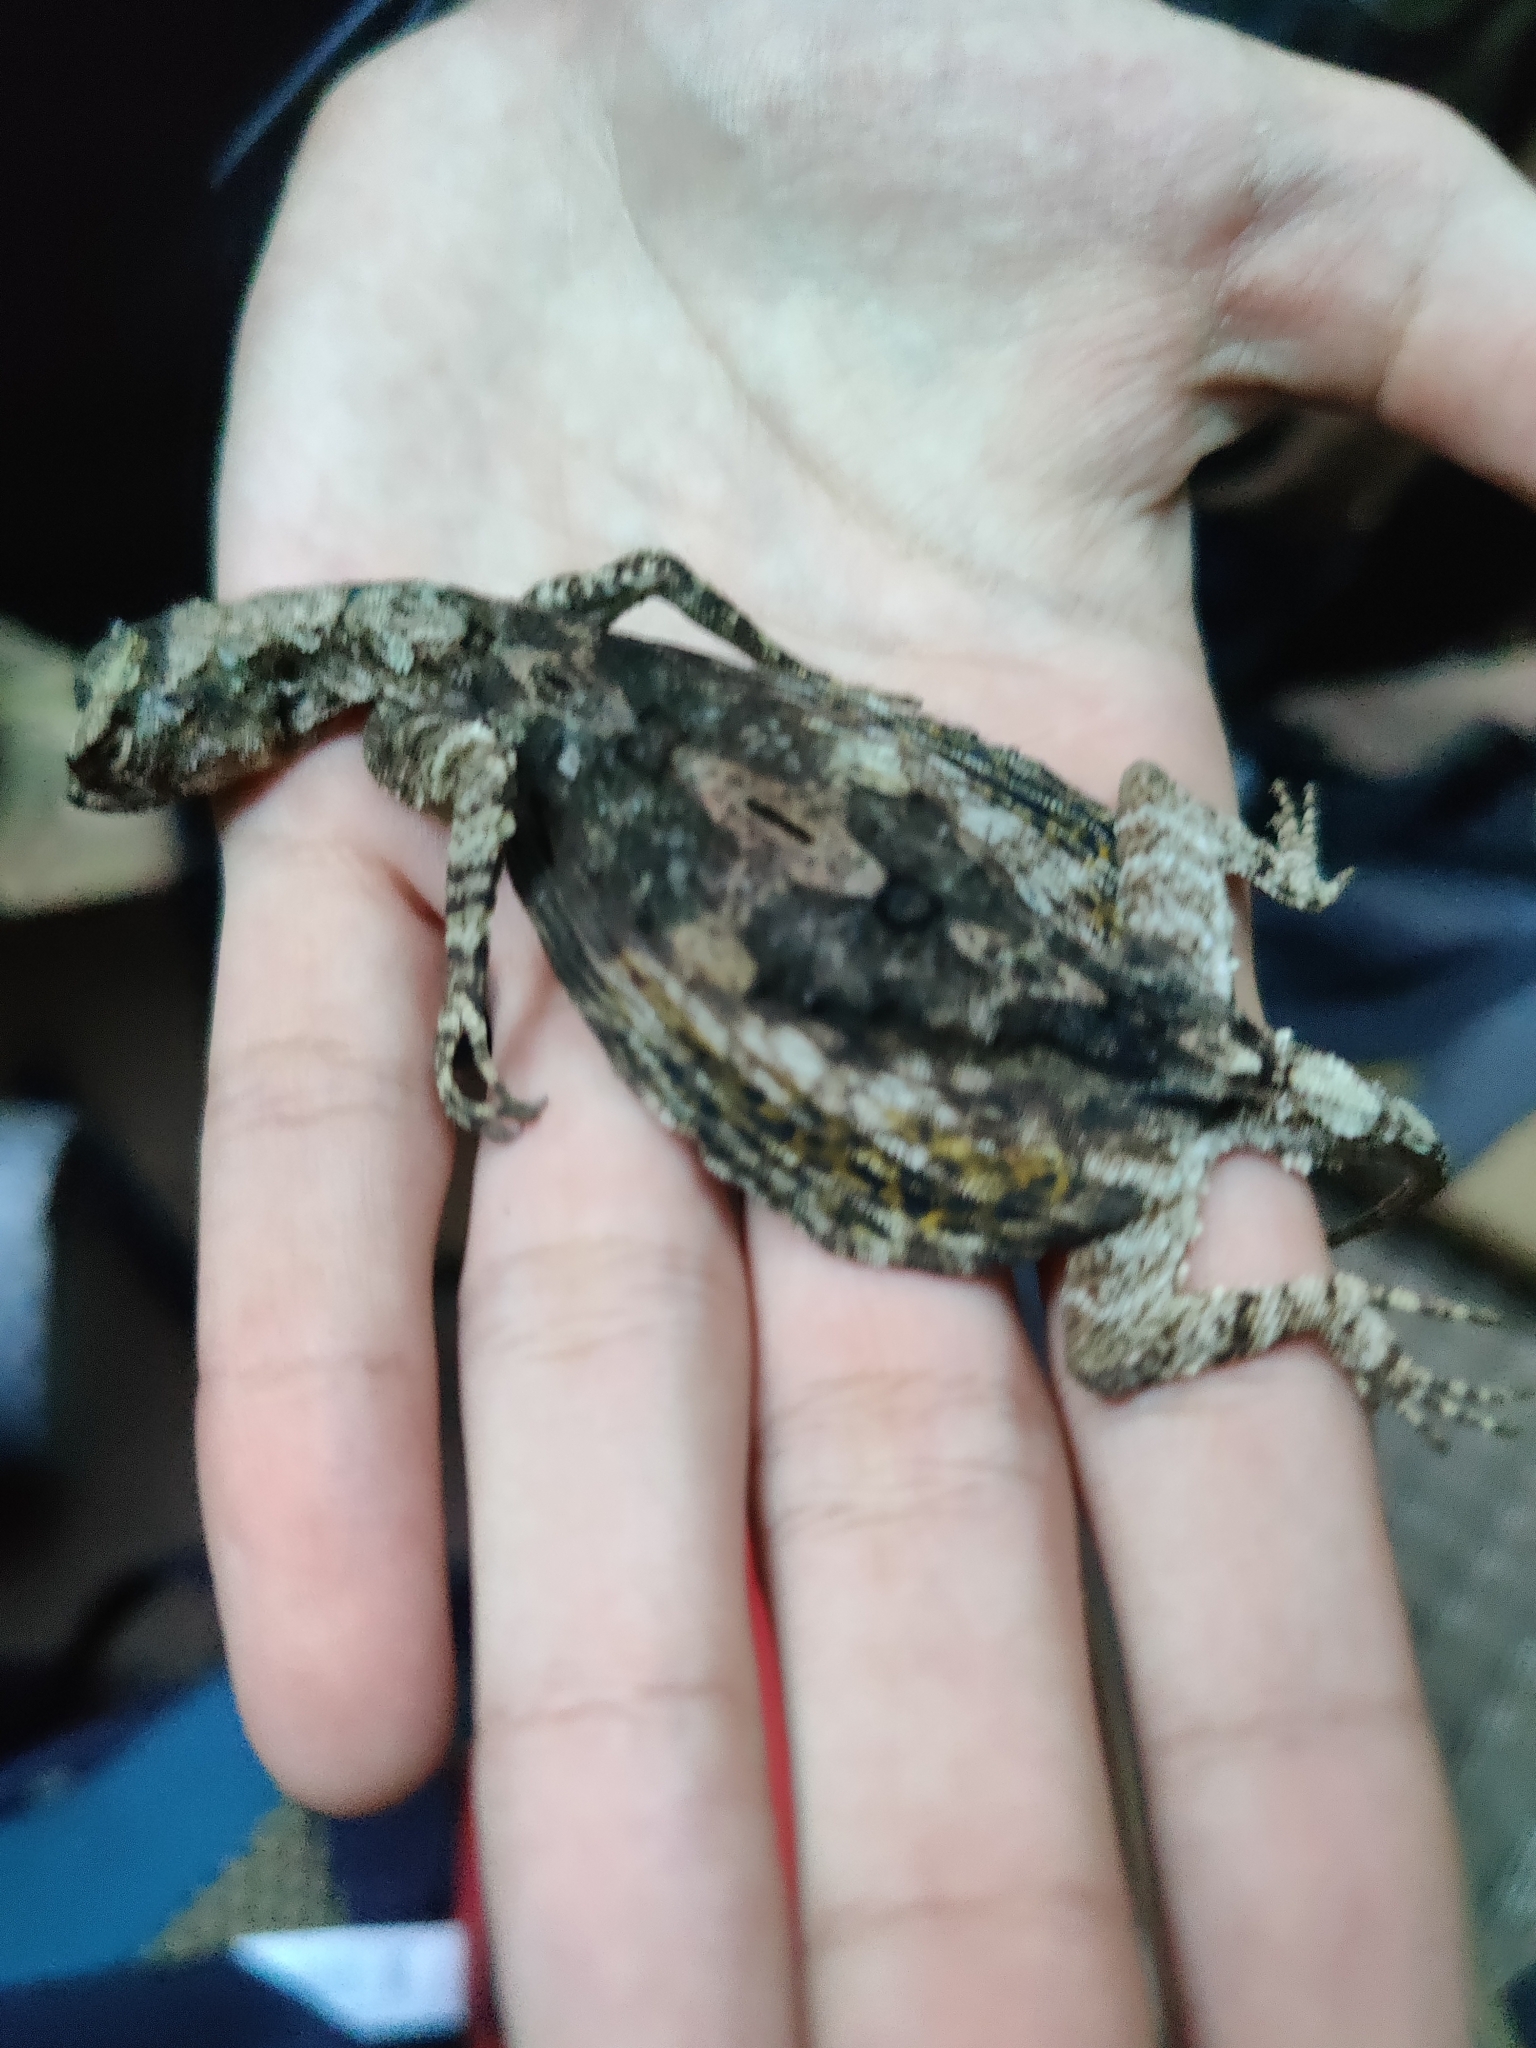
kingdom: Animalia
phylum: Chordata
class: Squamata
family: Agamidae
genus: Draco
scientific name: Draco dussumieri
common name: Southern flying lizard
